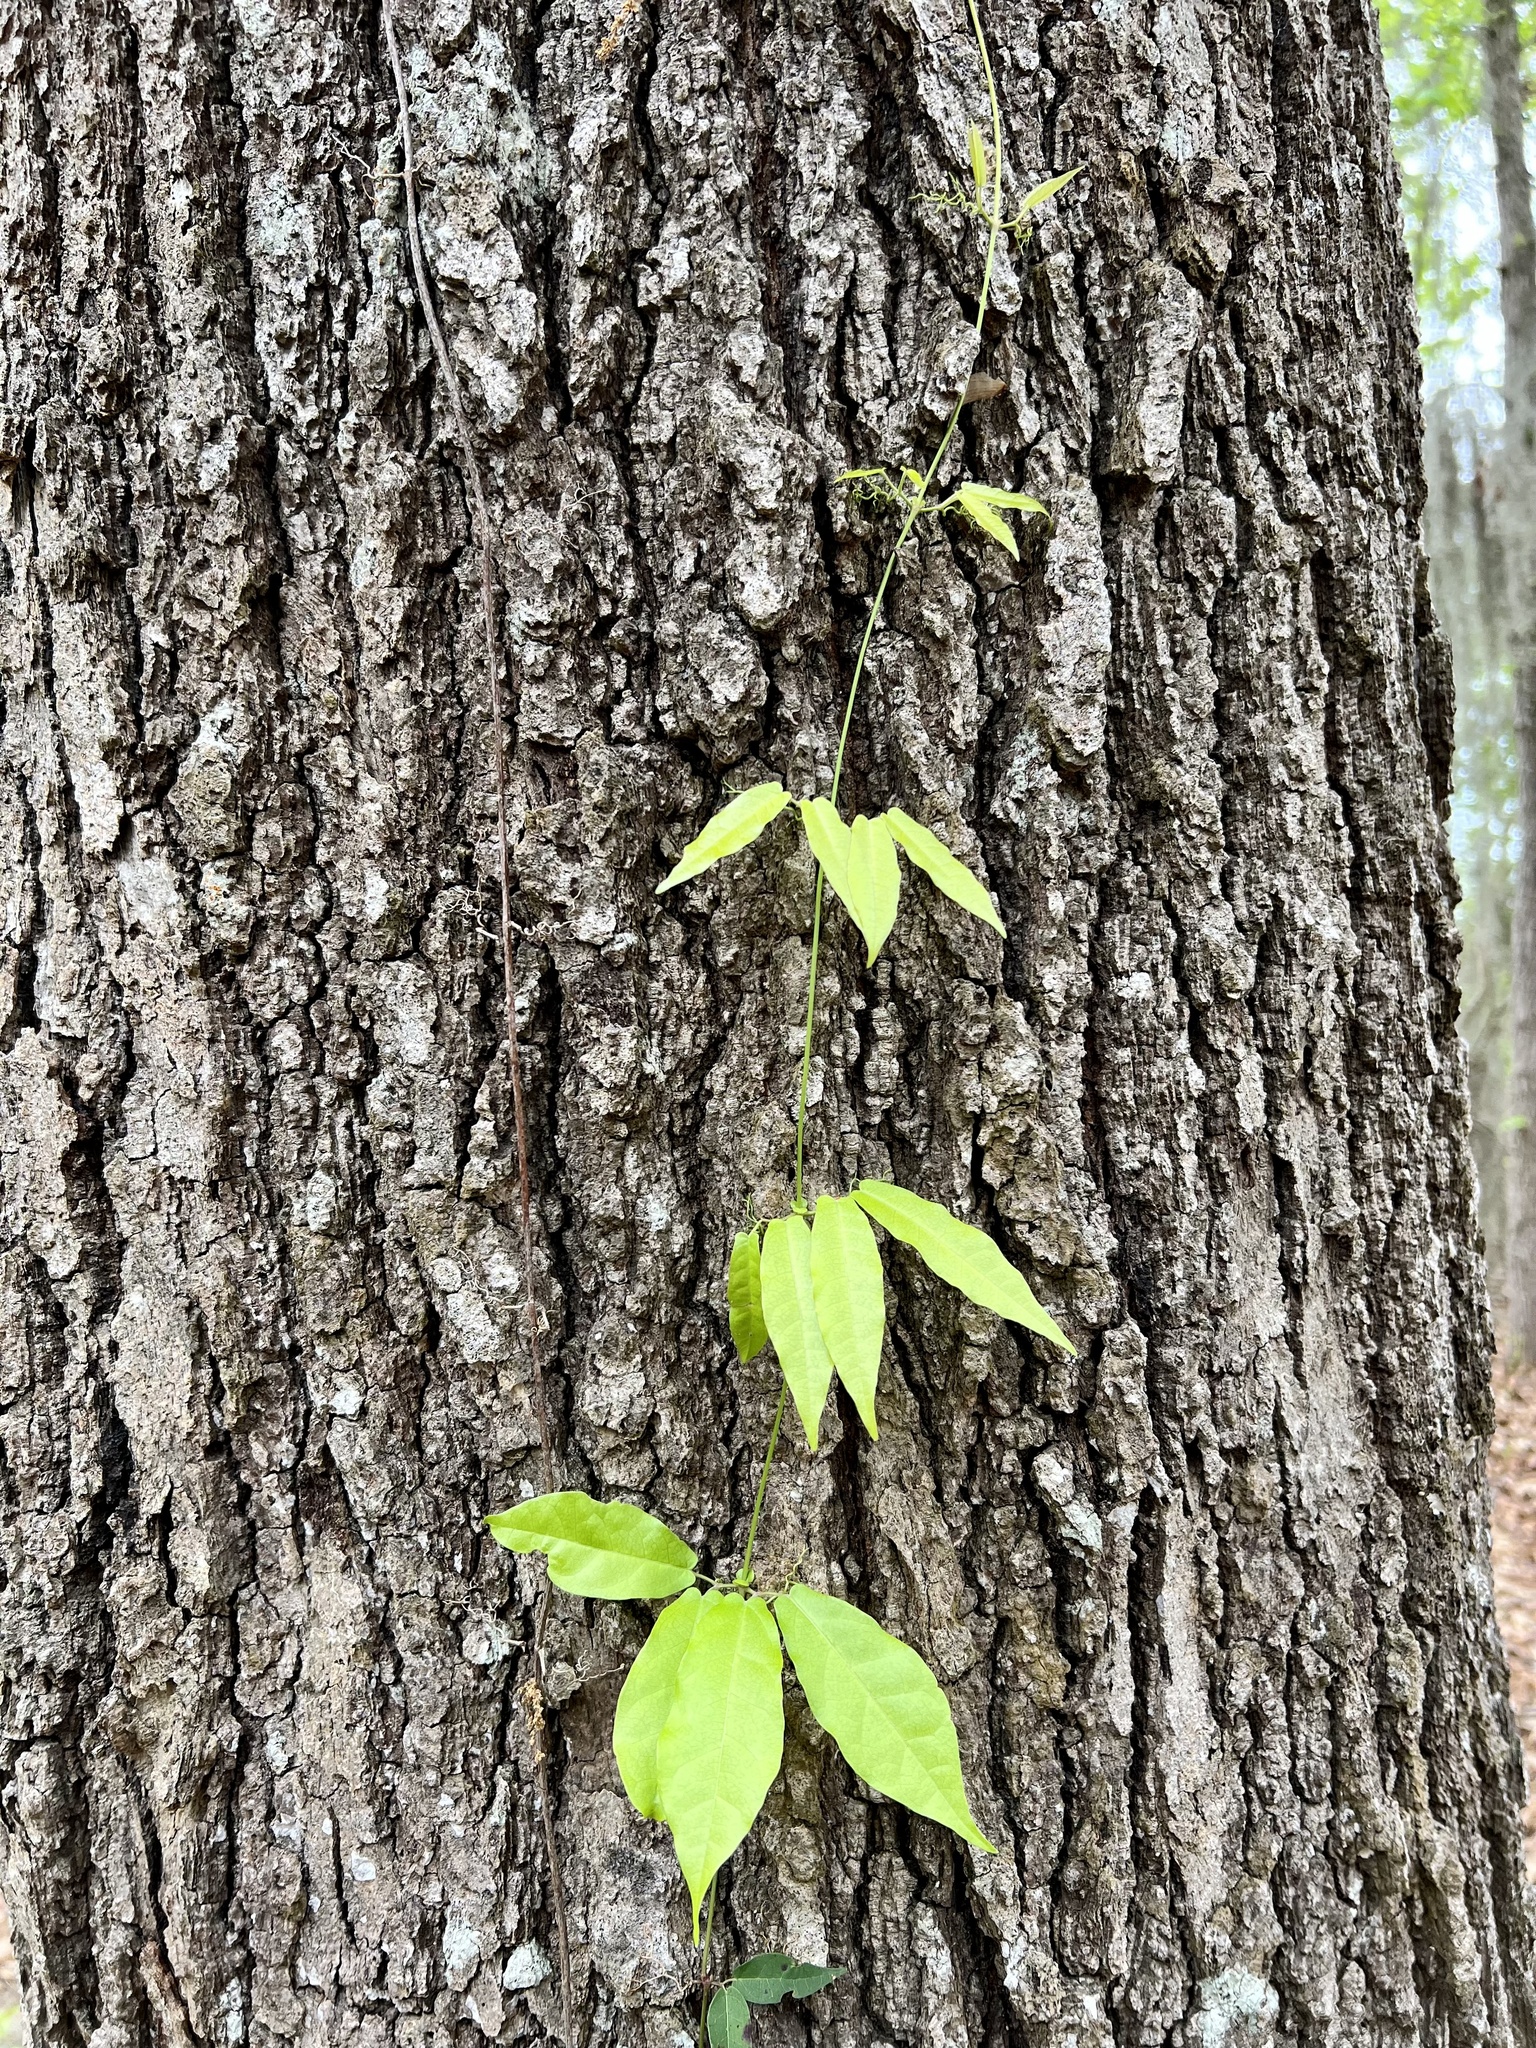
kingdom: Plantae
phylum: Tracheophyta
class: Magnoliopsida
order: Lamiales
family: Bignoniaceae
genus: Bignonia
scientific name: Bignonia capreolata
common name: Crossvine
